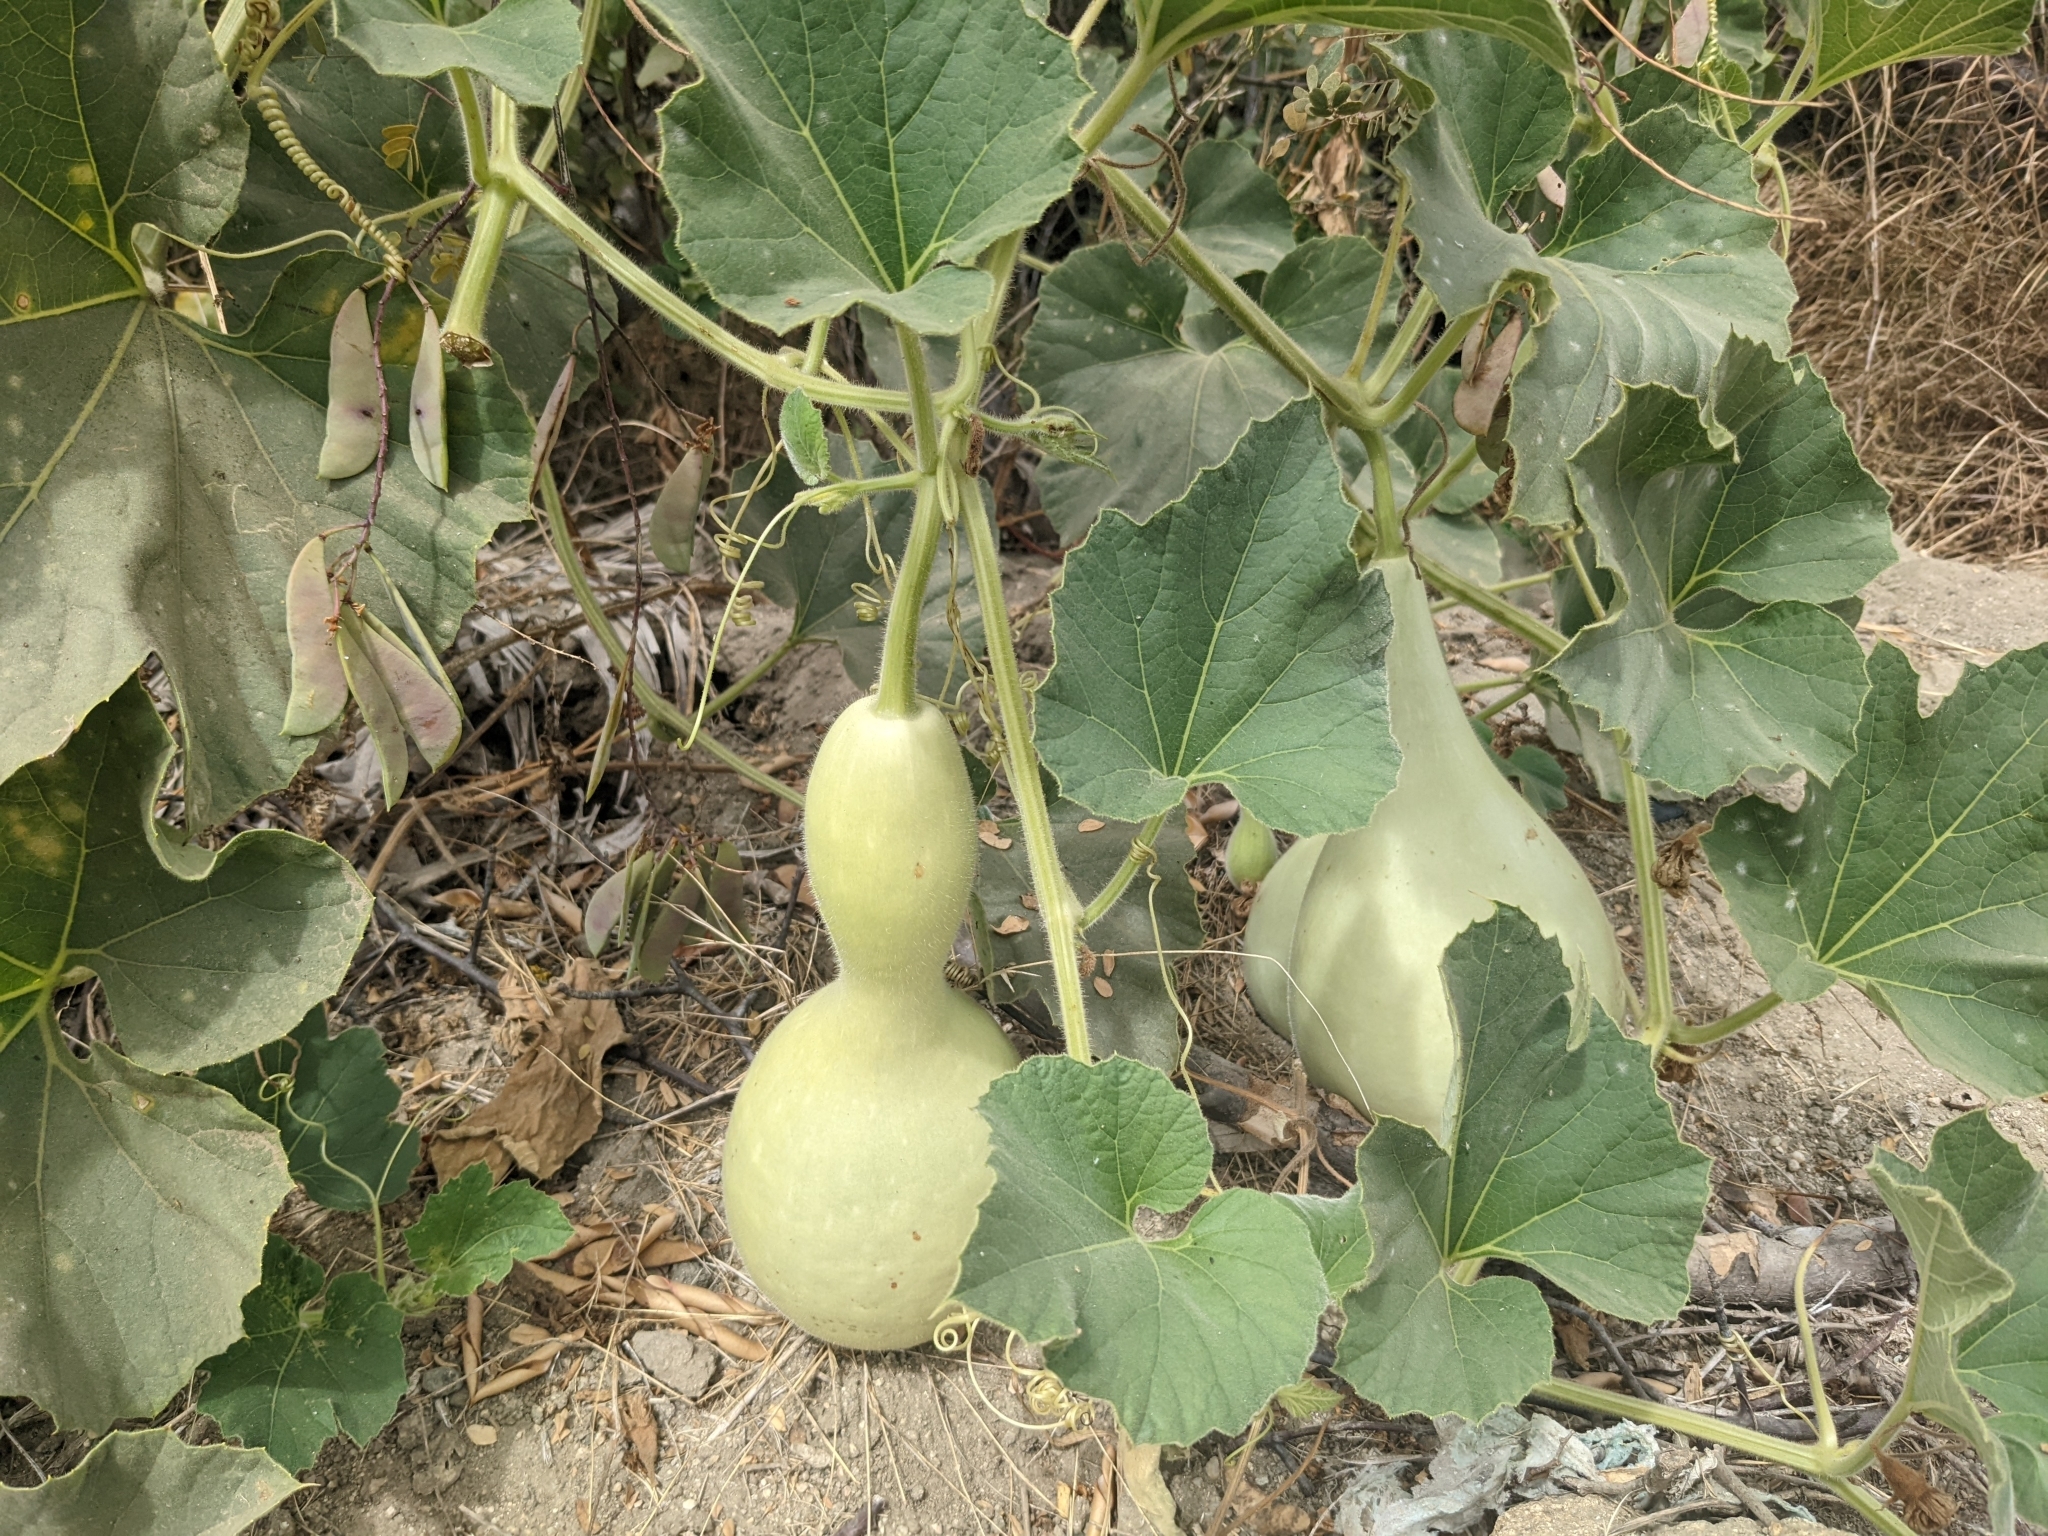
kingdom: Plantae
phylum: Tracheophyta
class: Magnoliopsida
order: Cucurbitales
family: Cucurbitaceae
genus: Lagenaria
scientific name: Lagenaria siceraria
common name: Bottle gourd
